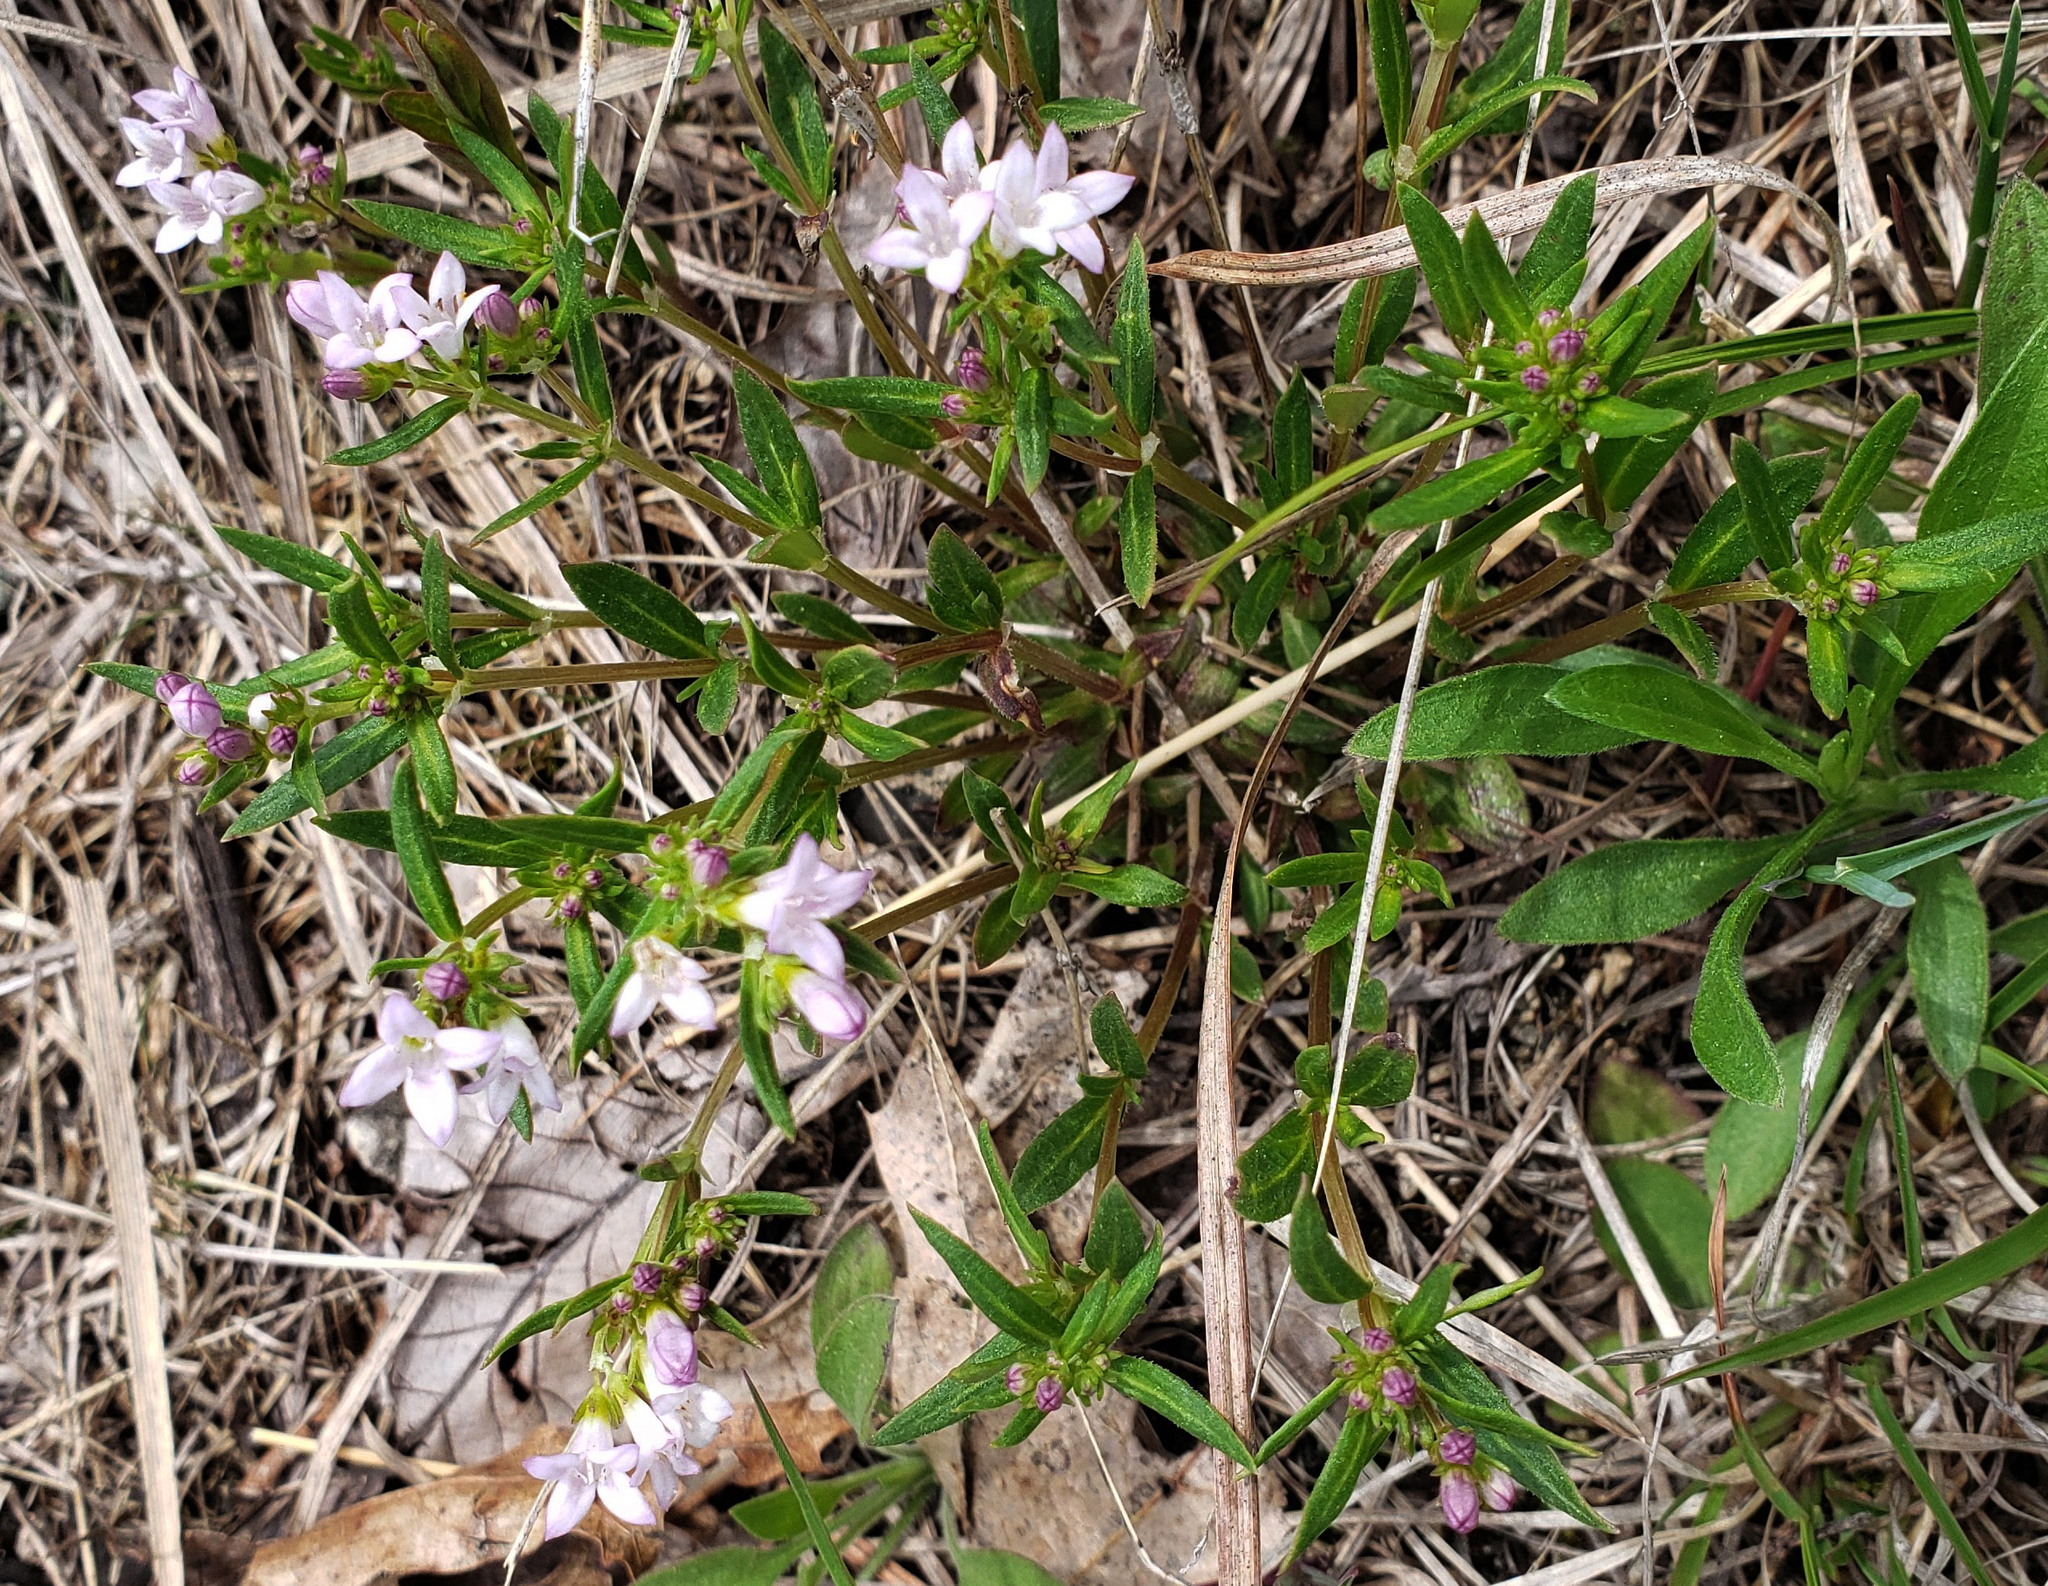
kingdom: Plantae
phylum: Tracheophyta
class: Magnoliopsida
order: Gentianales
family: Rubiaceae
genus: Houstonia
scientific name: Houstonia longifolia
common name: Long-leaved bluets
